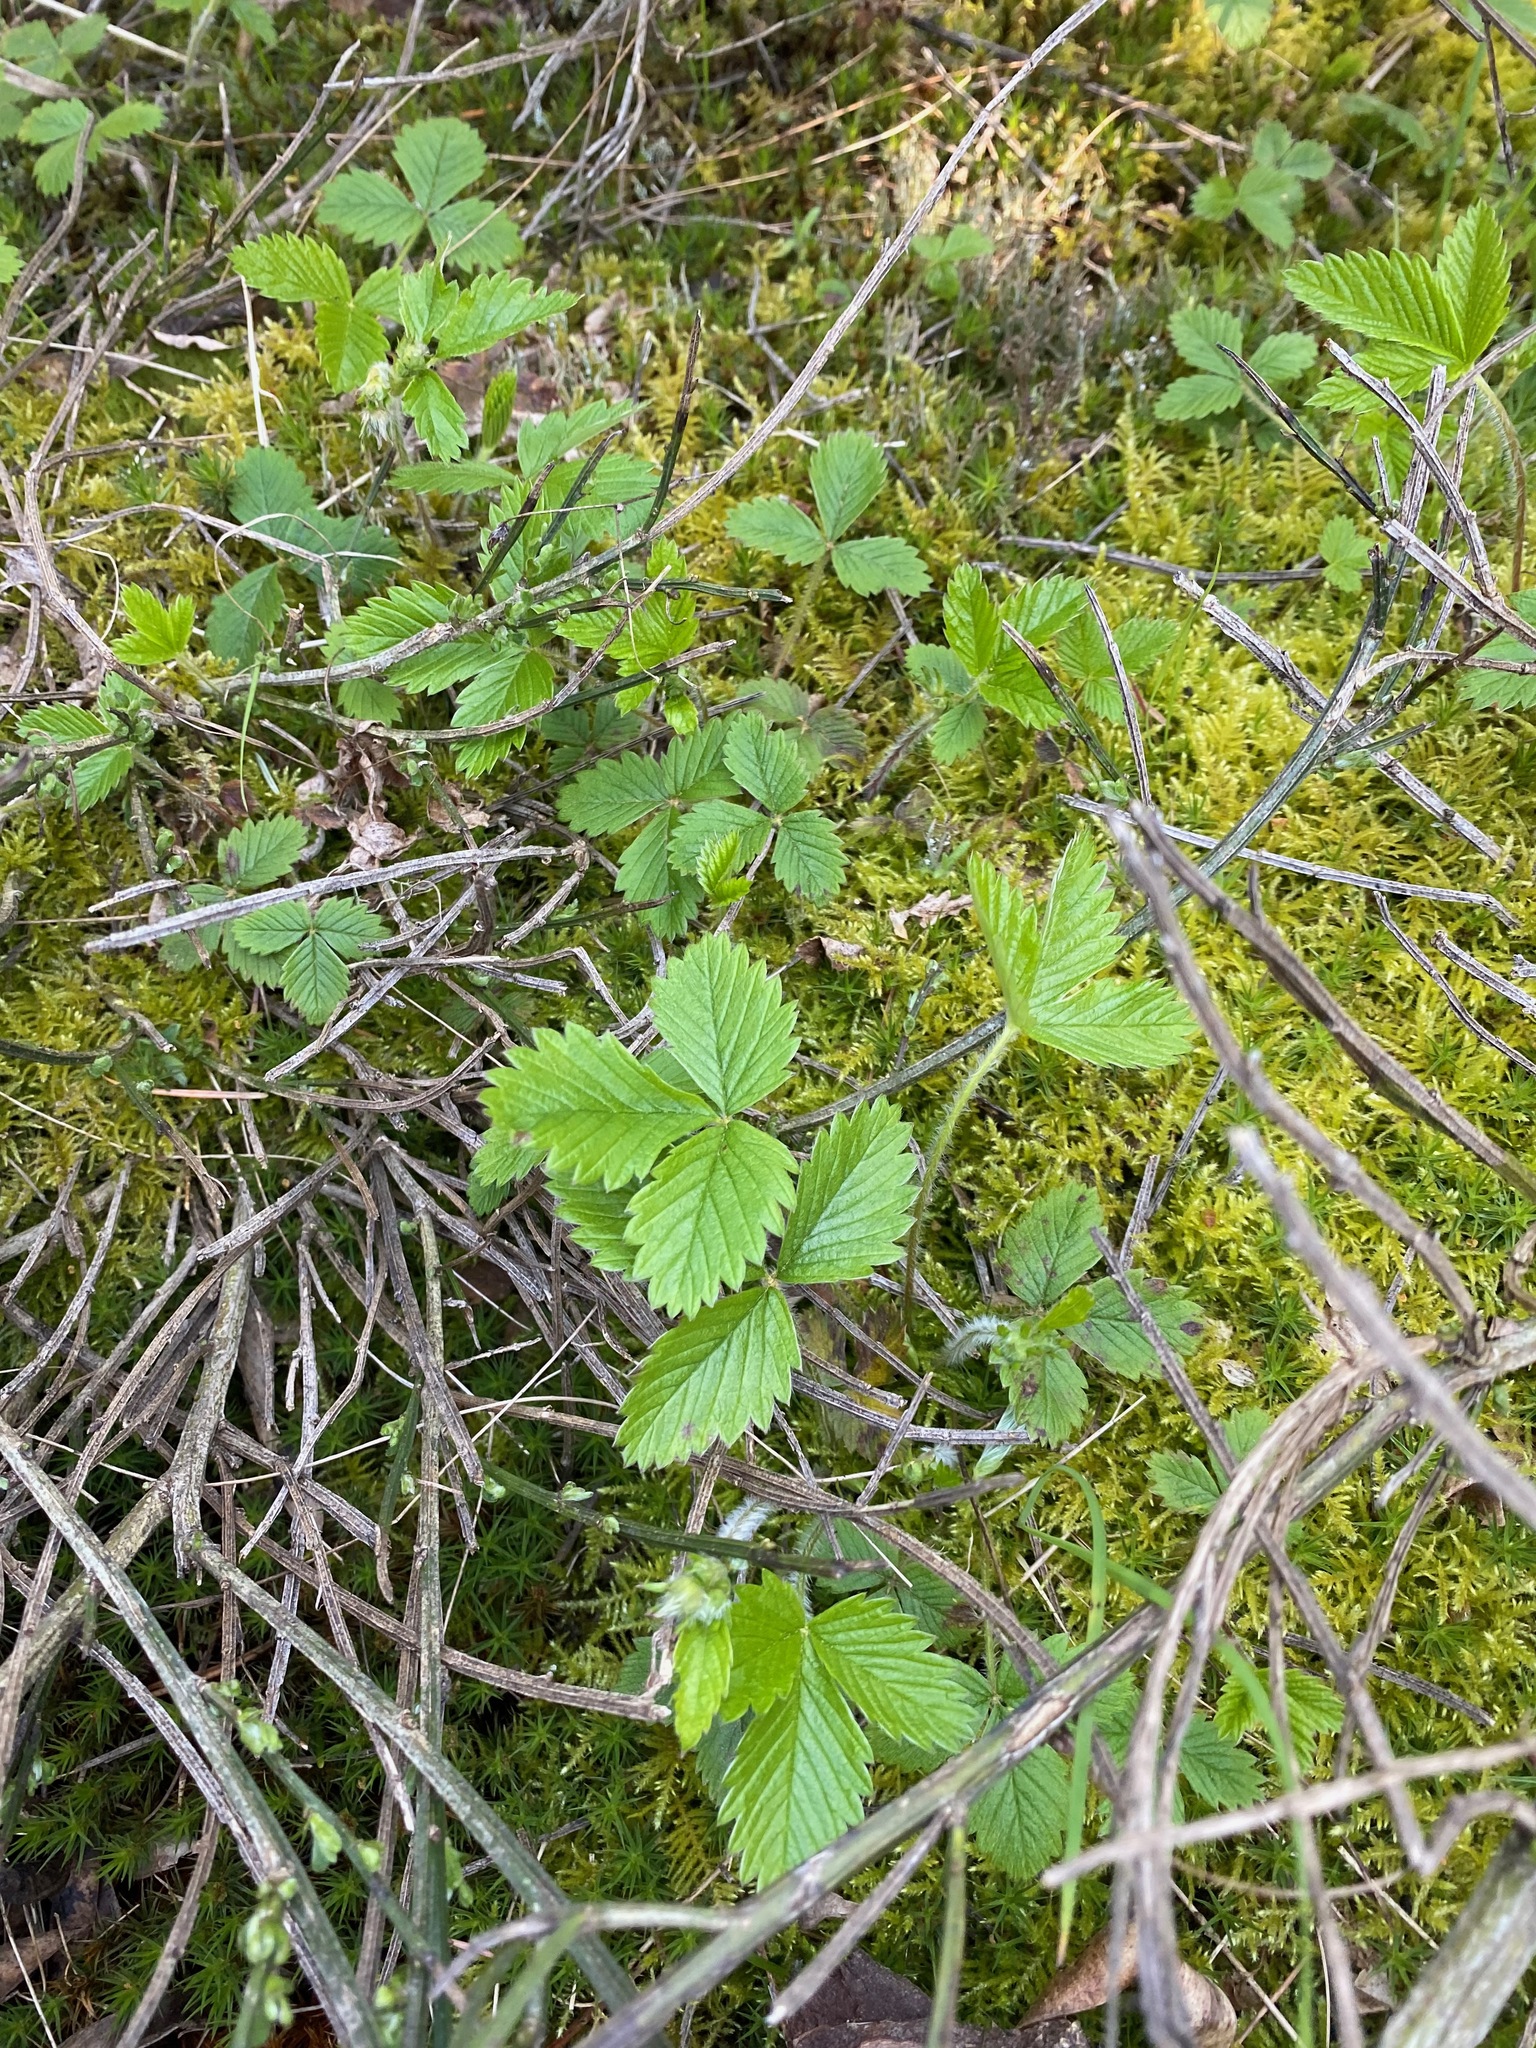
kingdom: Plantae
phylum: Tracheophyta
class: Magnoliopsida
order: Rosales
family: Rosaceae
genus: Fragaria
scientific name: Fragaria vesca
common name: Wild strawberry
